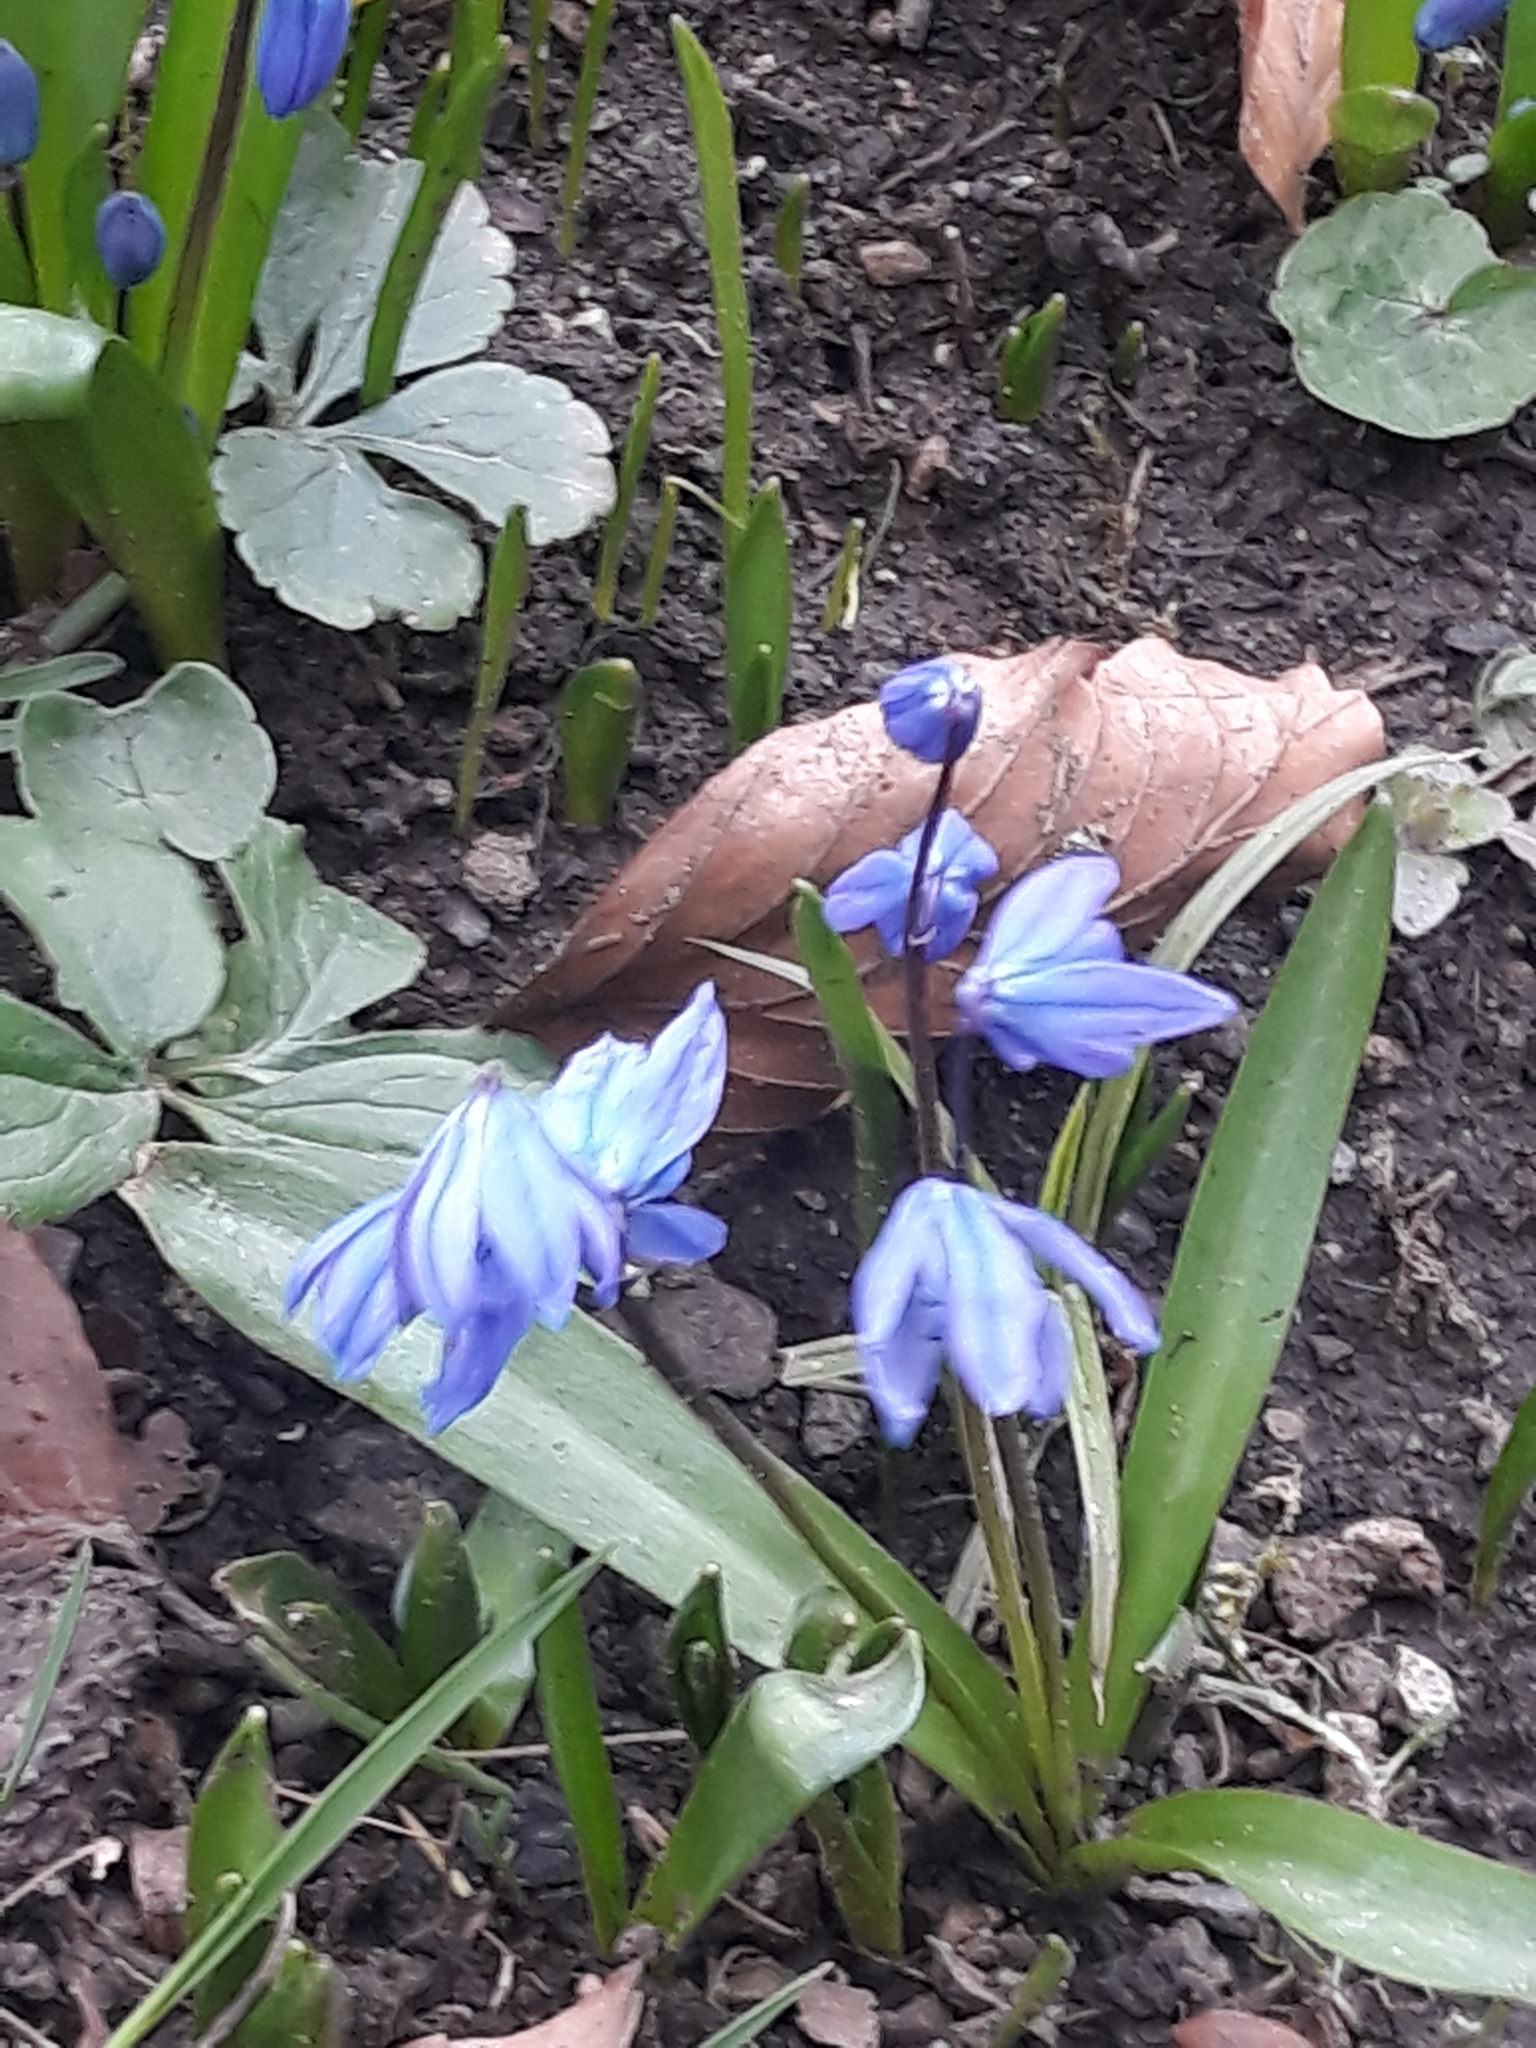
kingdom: Plantae
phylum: Tracheophyta
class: Liliopsida
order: Asparagales
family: Asparagaceae
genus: Scilla
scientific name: Scilla siberica
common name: Siberian squill
